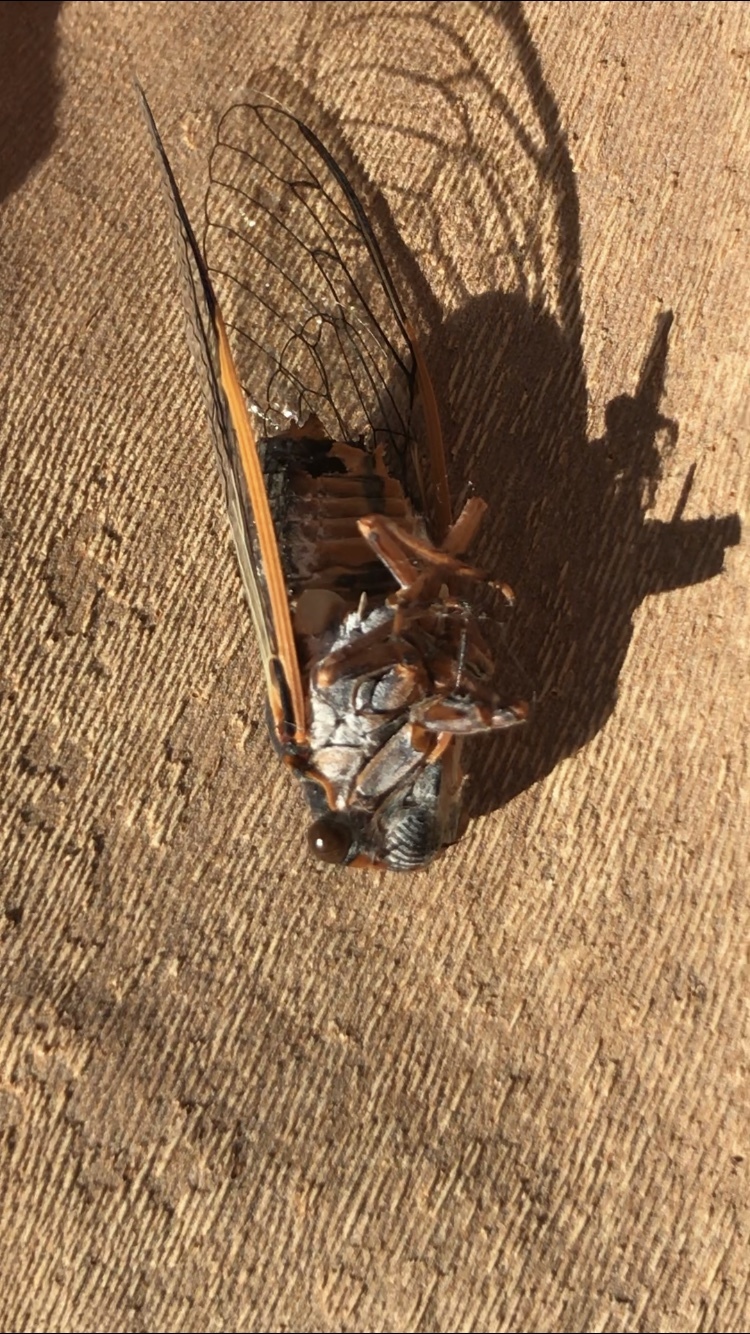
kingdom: Animalia
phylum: Arthropoda
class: Insecta
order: Hemiptera
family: Cicadidae
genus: Diceroprocta
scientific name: Diceroprocta cinctifera
